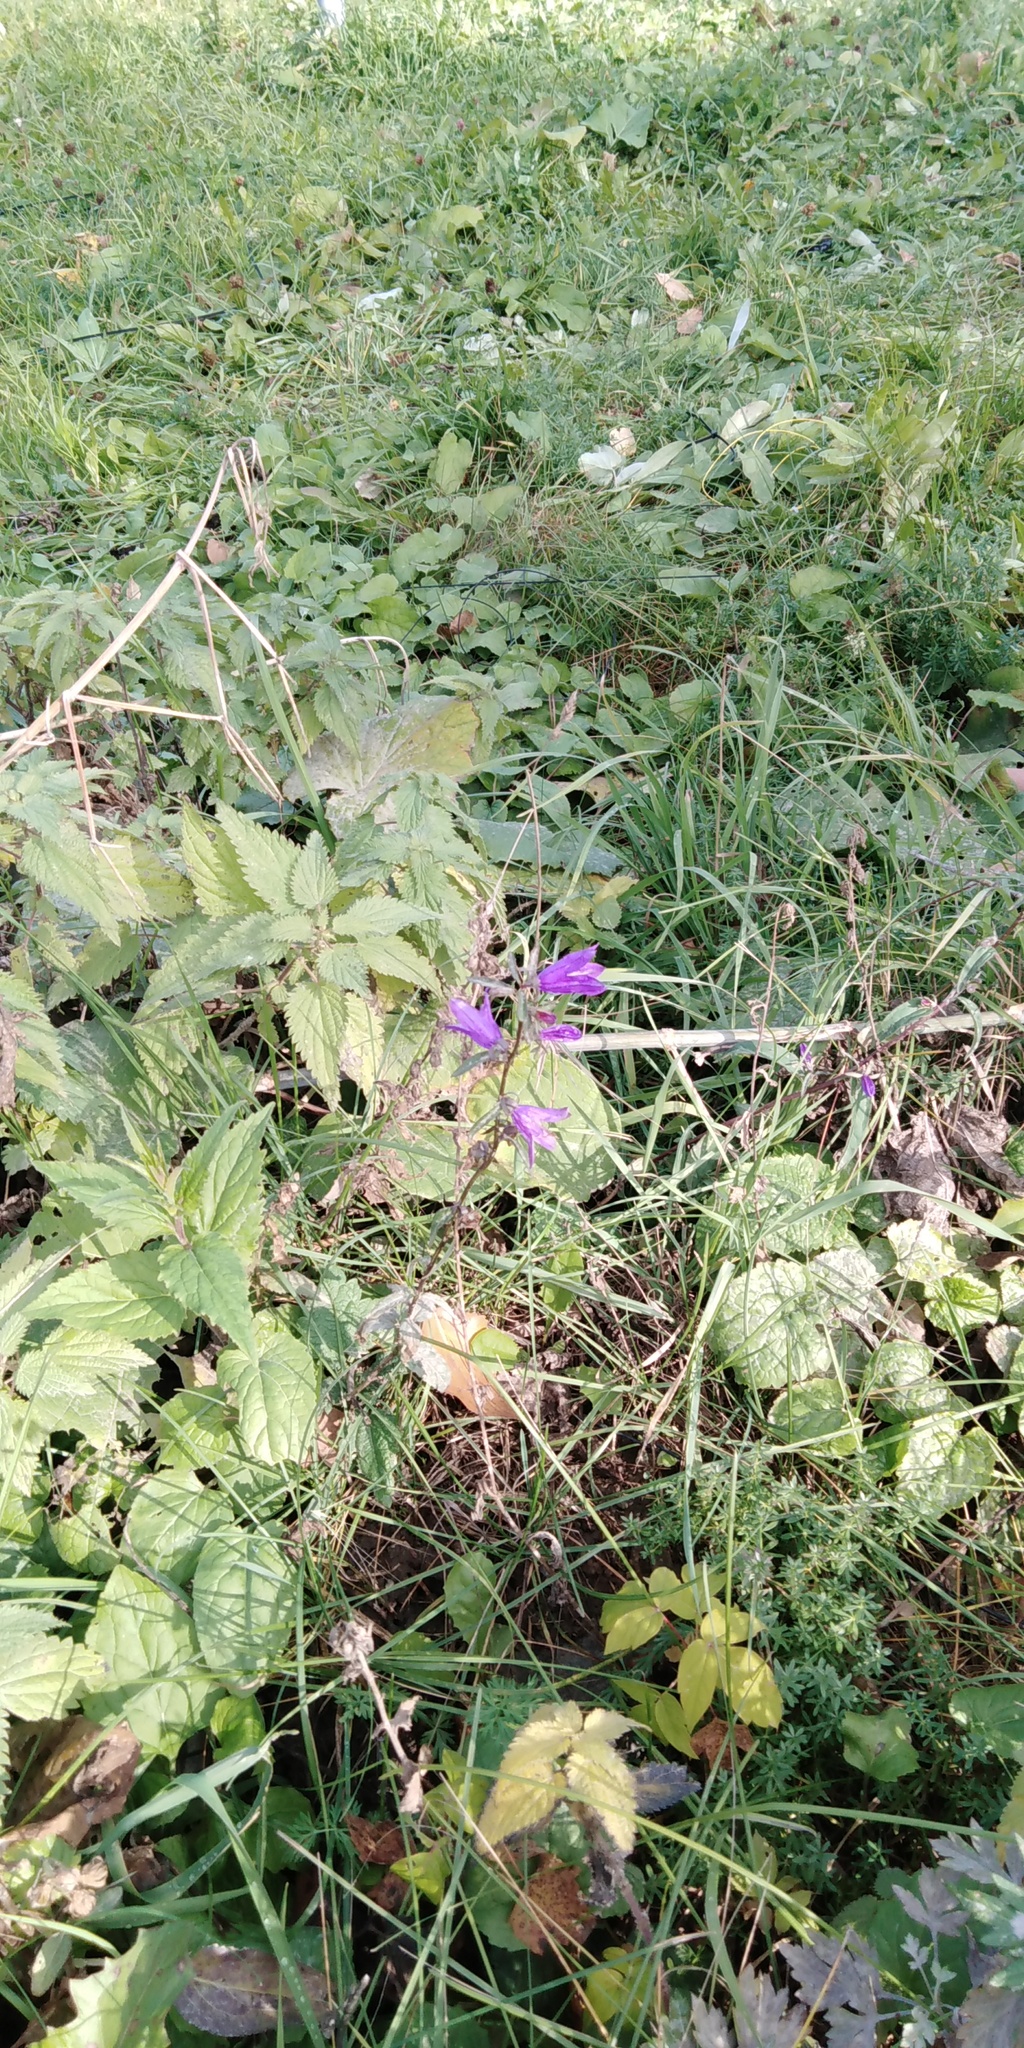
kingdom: Plantae
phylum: Tracheophyta
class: Magnoliopsida
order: Asterales
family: Campanulaceae
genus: Campanula
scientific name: Campanula rapunculoides
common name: Creeping bellflower
